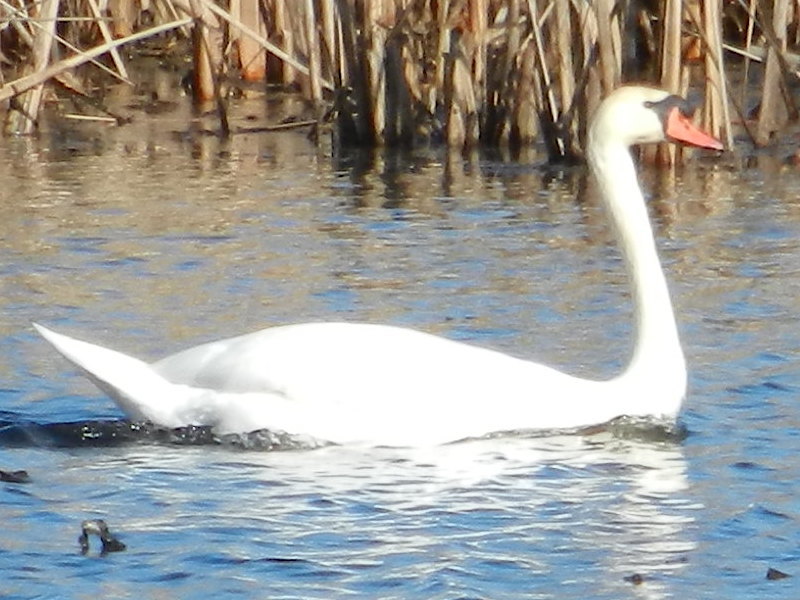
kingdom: Animalia
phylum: Chordata
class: Aves
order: Anseriformes
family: Anatidae
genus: Cygnus
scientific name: Cygnus olor
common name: Mute swan
